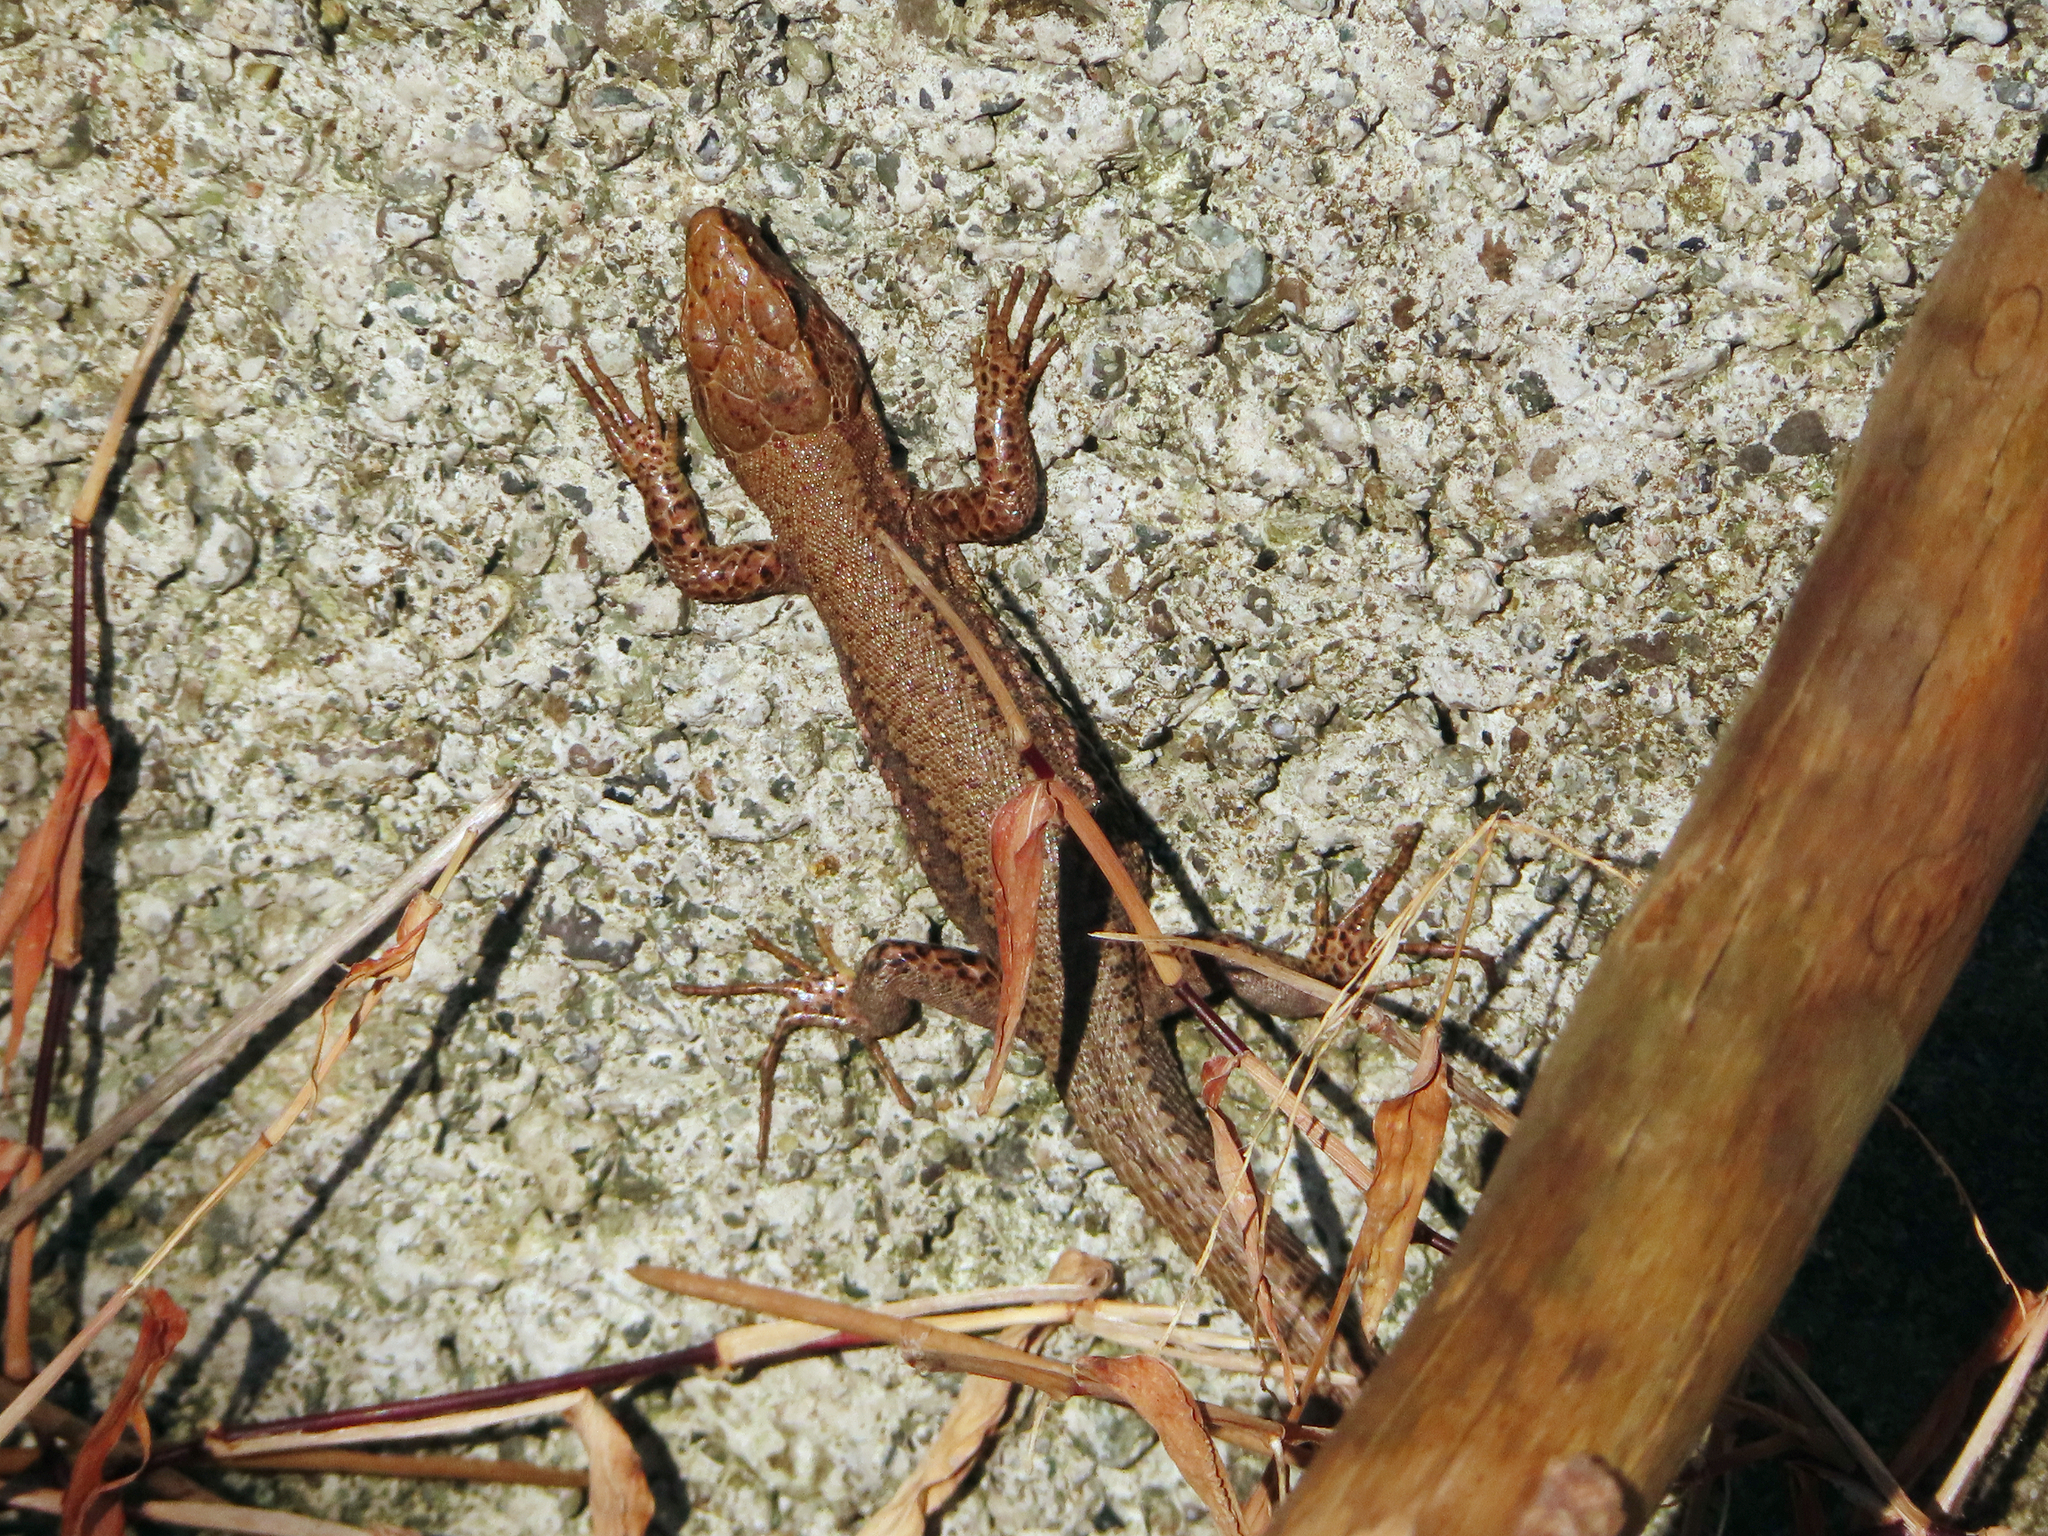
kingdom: Animalia
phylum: Chordata
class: Squamata
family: Lacertidae
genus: Darevskia
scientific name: Darevskia derjugini
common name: Derjugin's lizard
